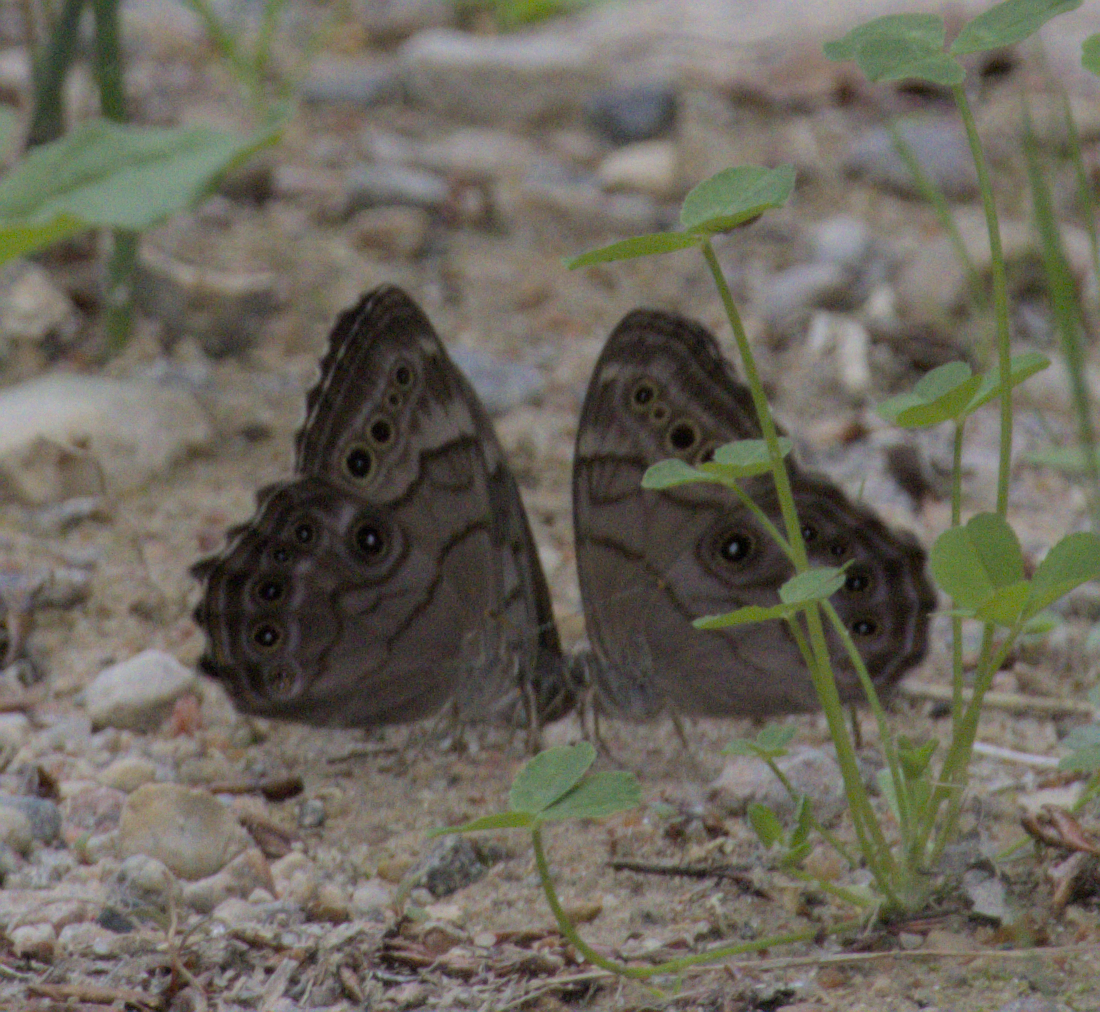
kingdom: Animalia
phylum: Arthropoda
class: Insecta
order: Lepidoptera
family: Nymphalidae
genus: Lethe
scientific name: Lethe anthedon
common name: Northern pearly-eye
